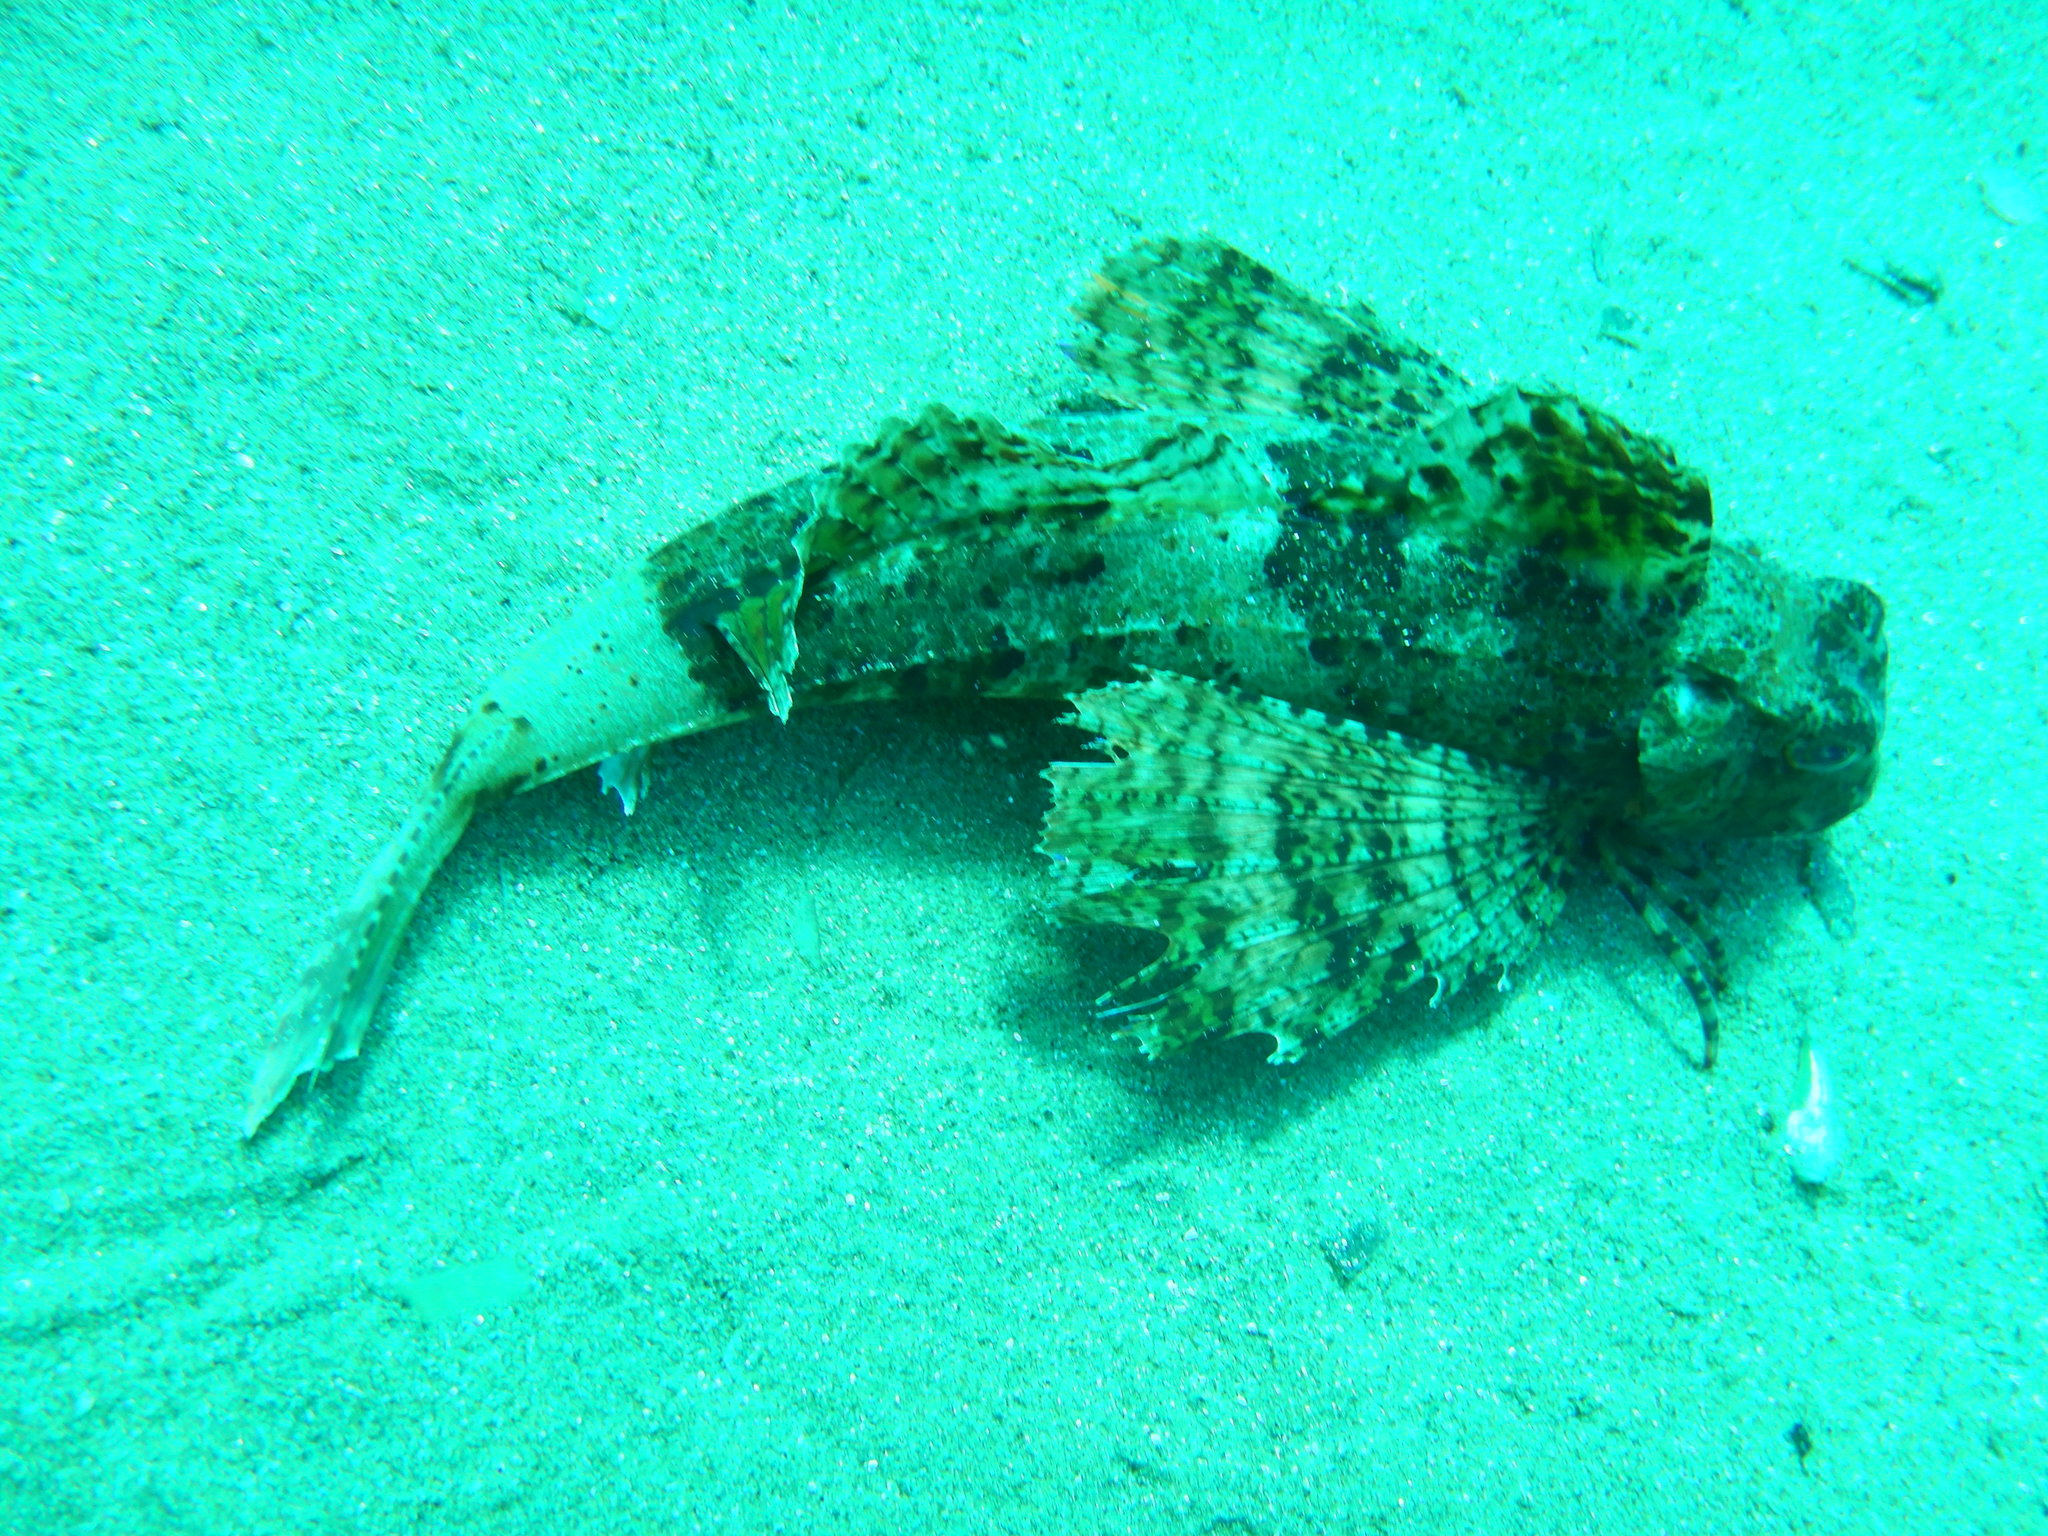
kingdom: Animalia
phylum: Chordata
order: Scorpaeniformes
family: Triglidae
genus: Chelidonichthys
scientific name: Chelidonichthys lastoviza
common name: Streaked gurnard
